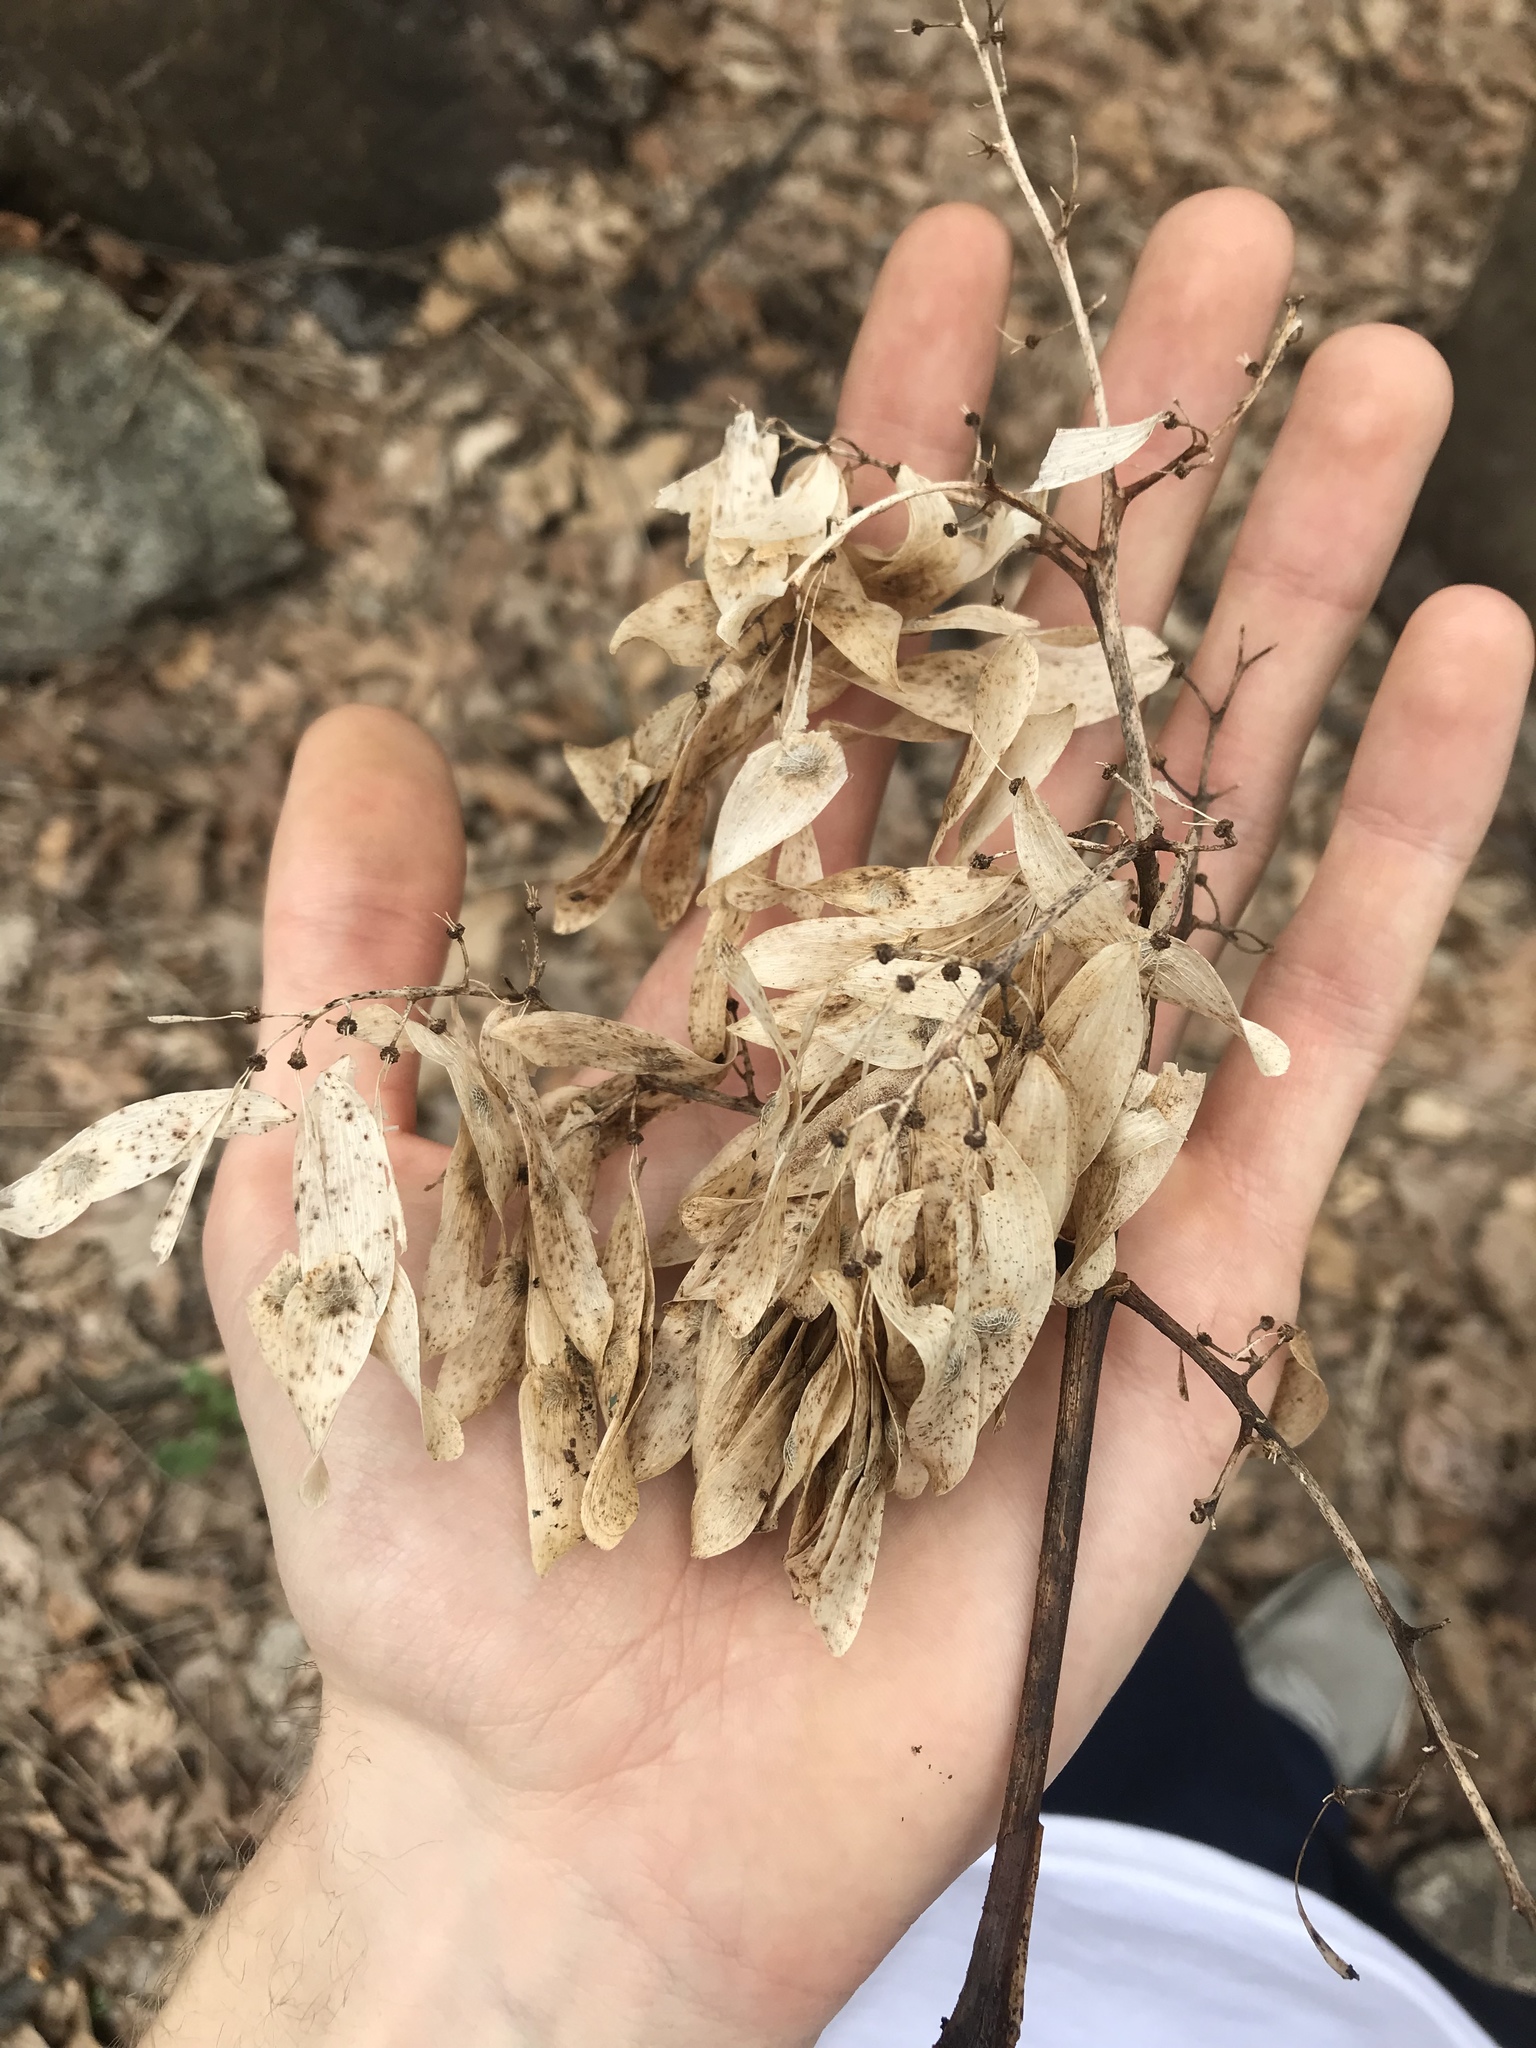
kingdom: Plantae
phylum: Tracheophyta
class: Magnoliopsida
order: Sapindales
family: Simaroubaceae
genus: Ailanthus
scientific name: Ailanthus altissima
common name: Tree-of-heaven
